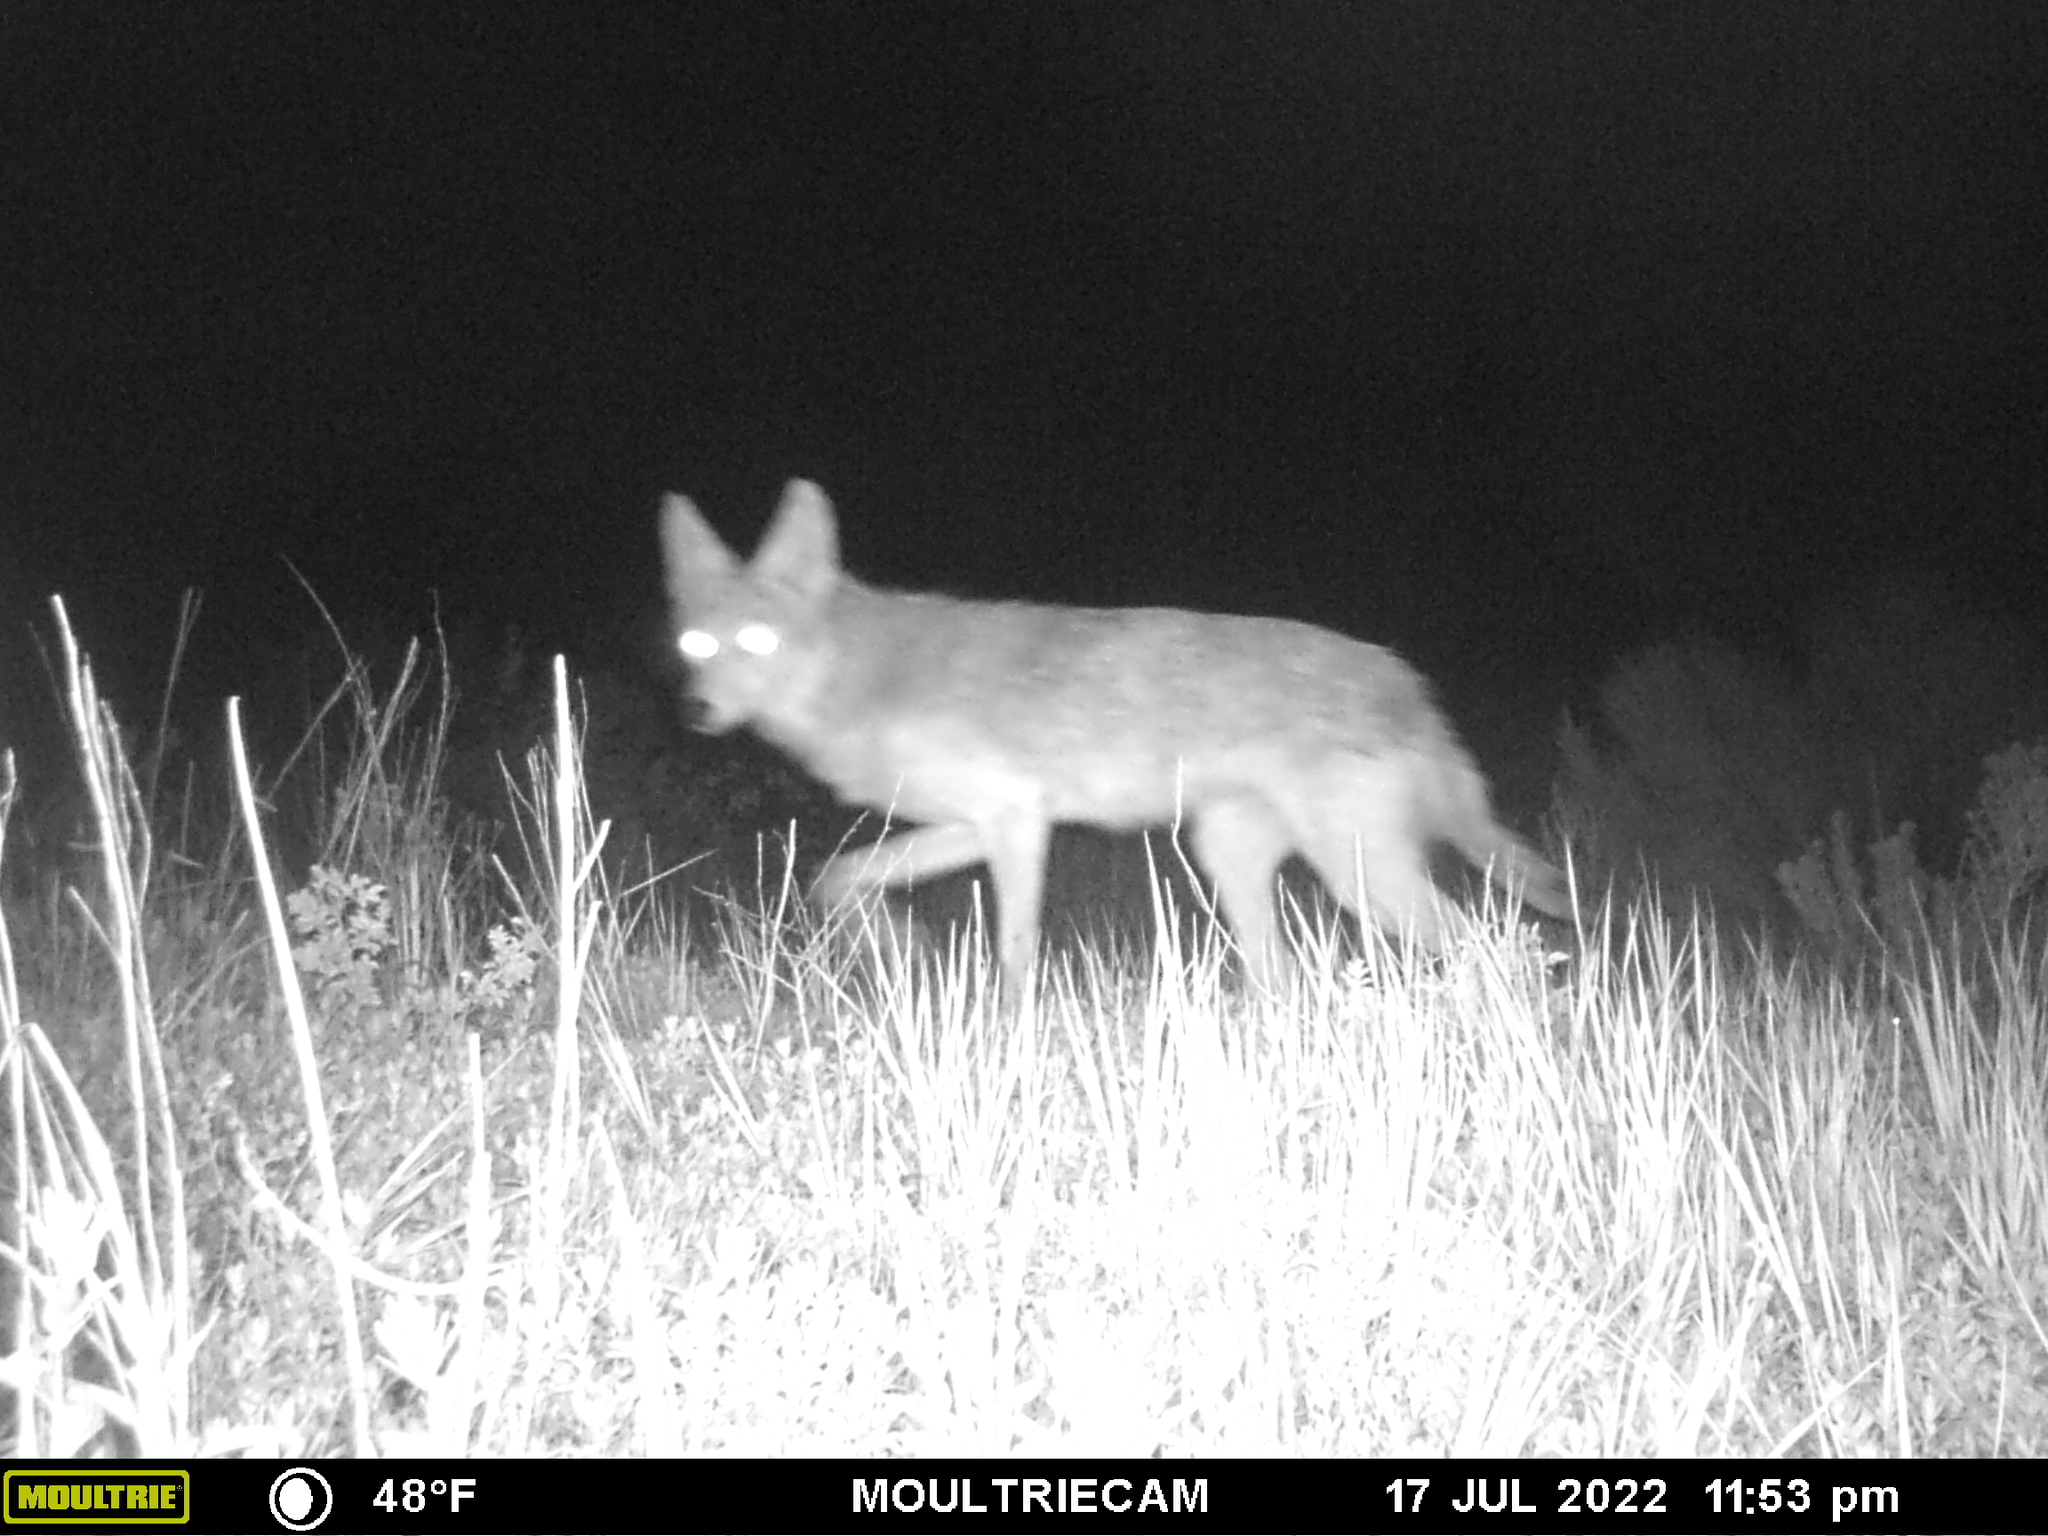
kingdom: Animalia
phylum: Chordata
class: Mammalia
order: Carnivora
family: Canidae
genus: Canis
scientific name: Canis latrans
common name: Coyote
